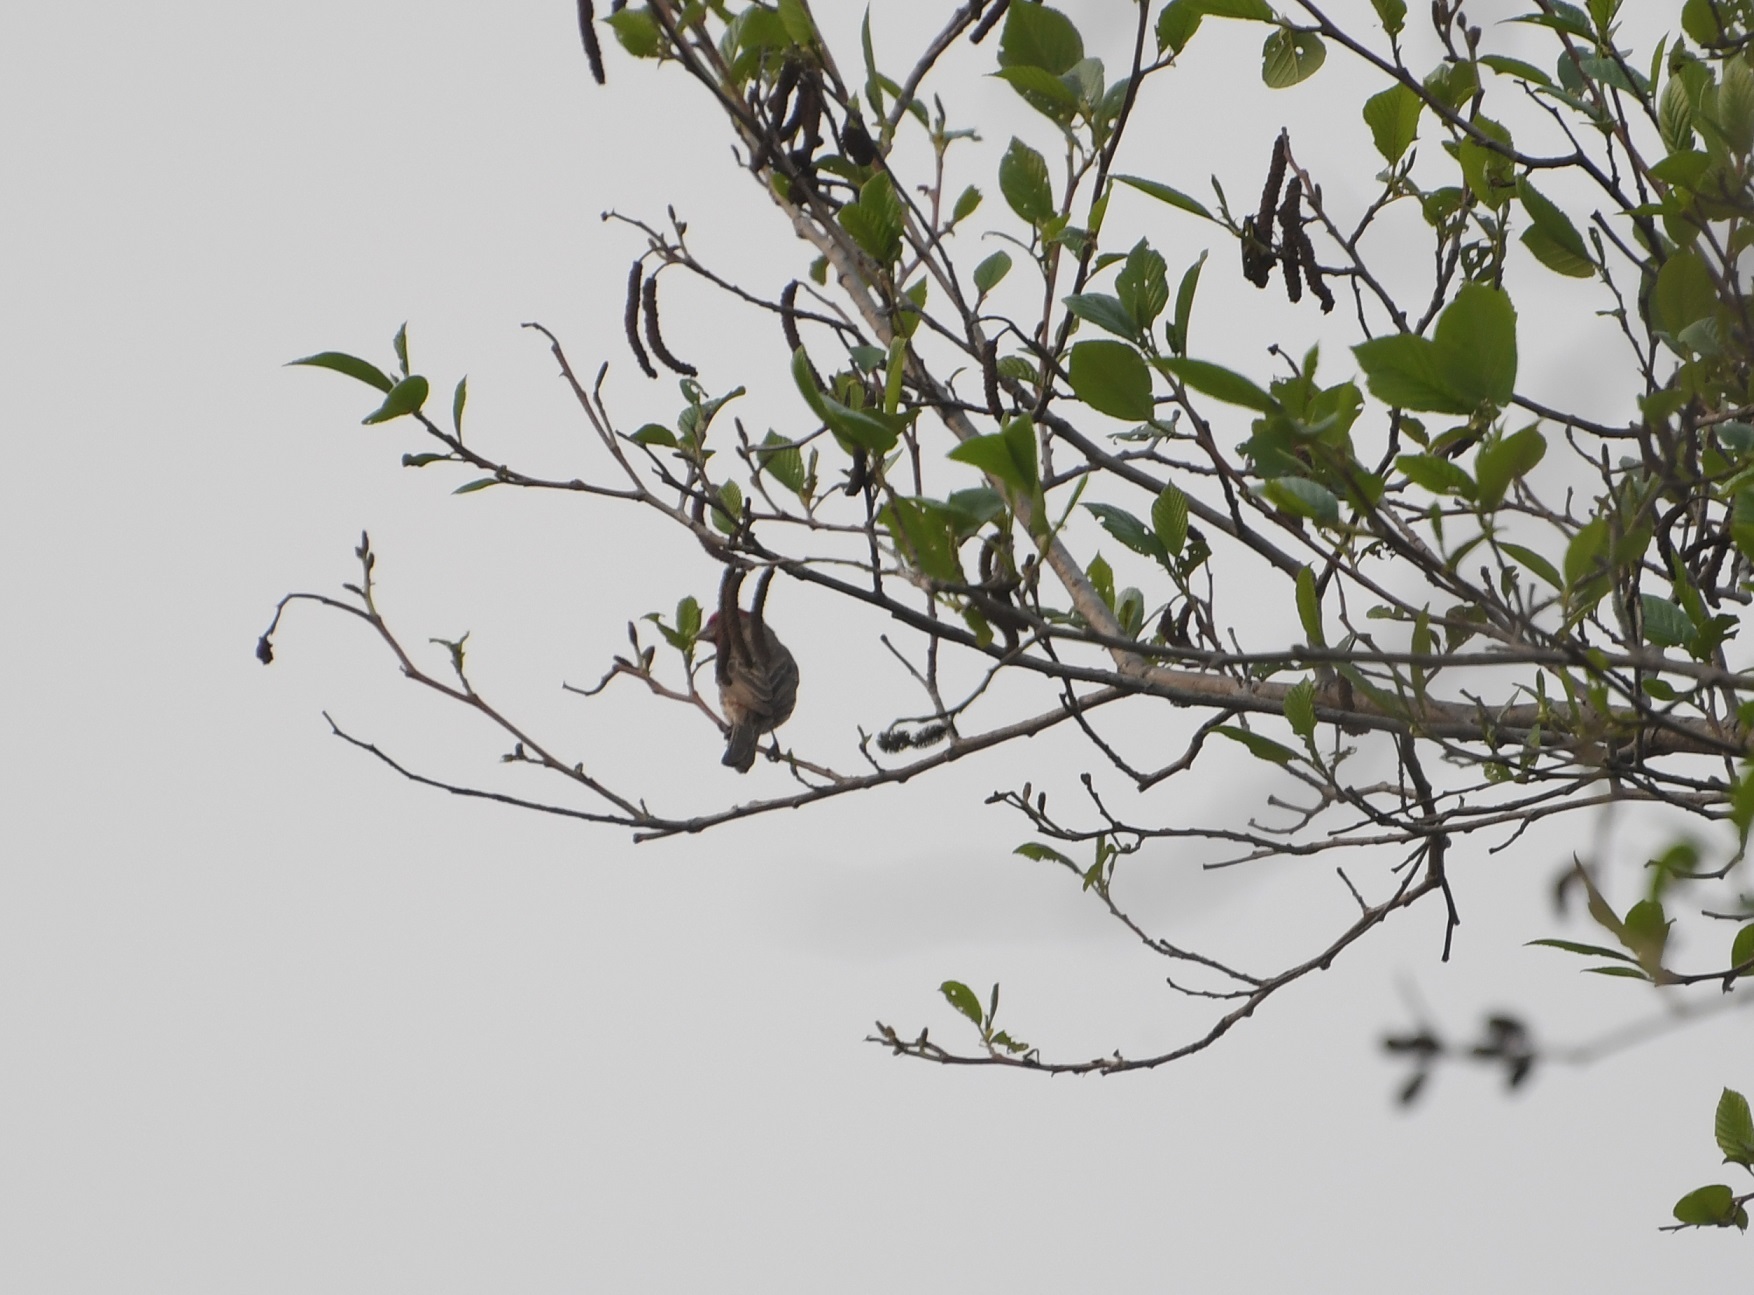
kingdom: Animalia
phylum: Chordata
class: Aves
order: Passeriformes
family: Fringillidae
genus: Haemorhous
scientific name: Haemorhous mexicanus
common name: House finch
